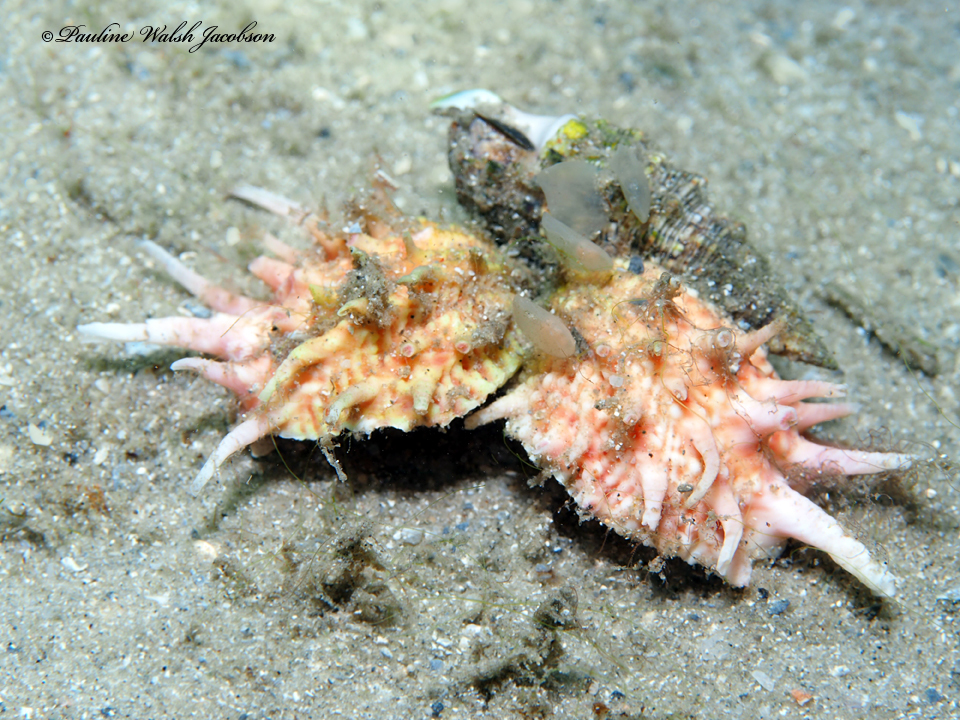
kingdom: Animalia
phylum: Mollusca
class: Bivalvia
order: Venerida
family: Chamidae
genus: Arcinella
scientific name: Arcinella cornuta
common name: Florida spiny jewel box
